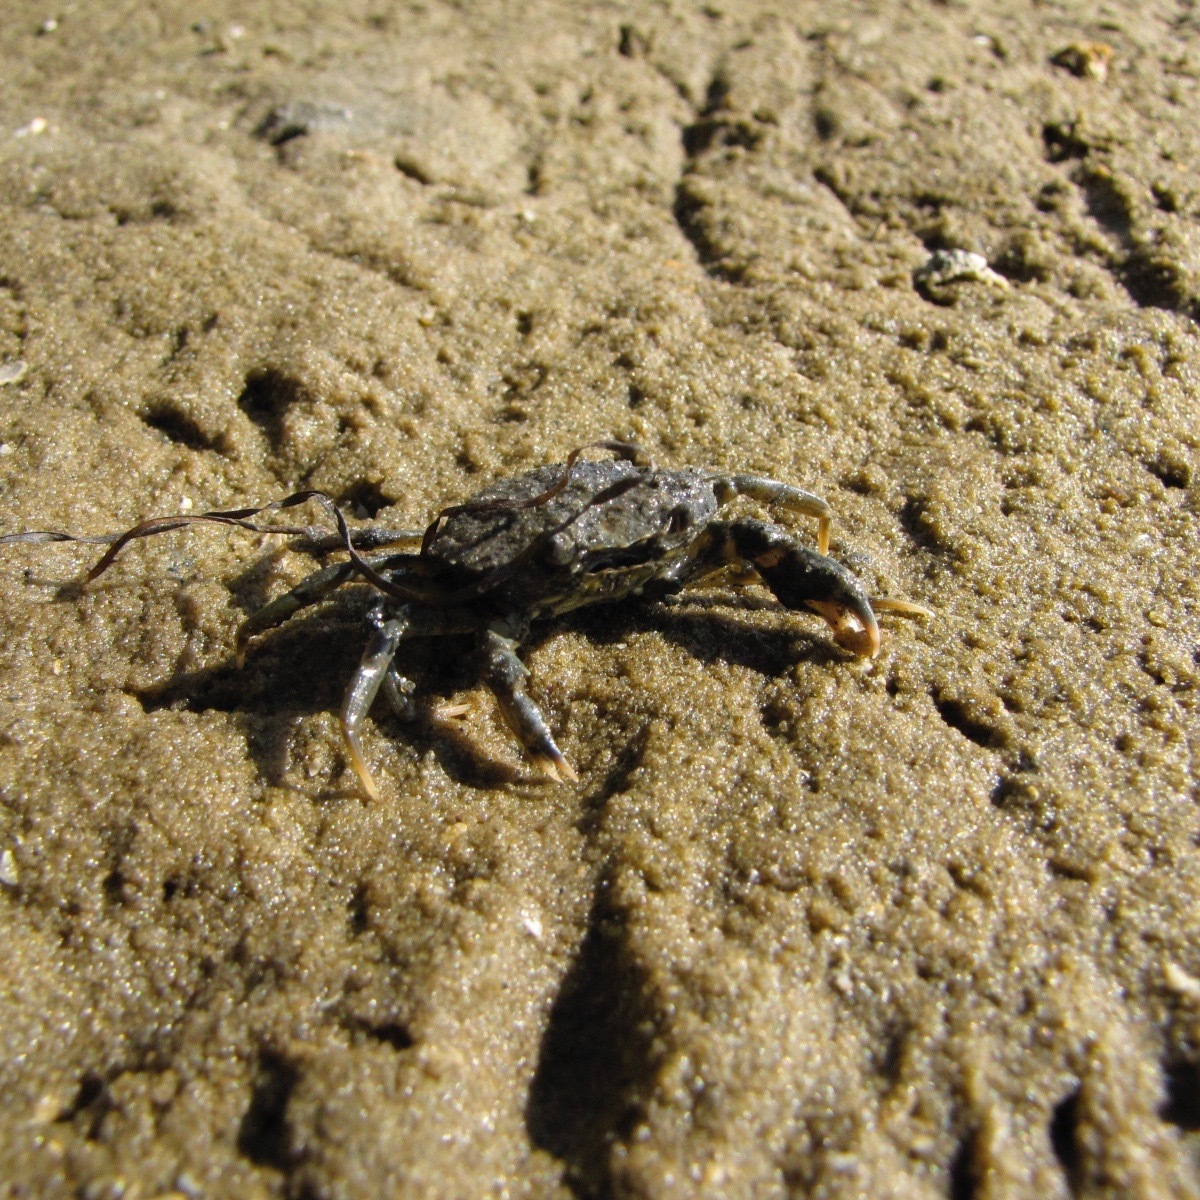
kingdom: Animalia
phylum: Arthropoda
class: Malacostraca
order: Decapoda
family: Carcinidae
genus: Carcinus
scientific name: Carcinus maenas
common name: European green crab
